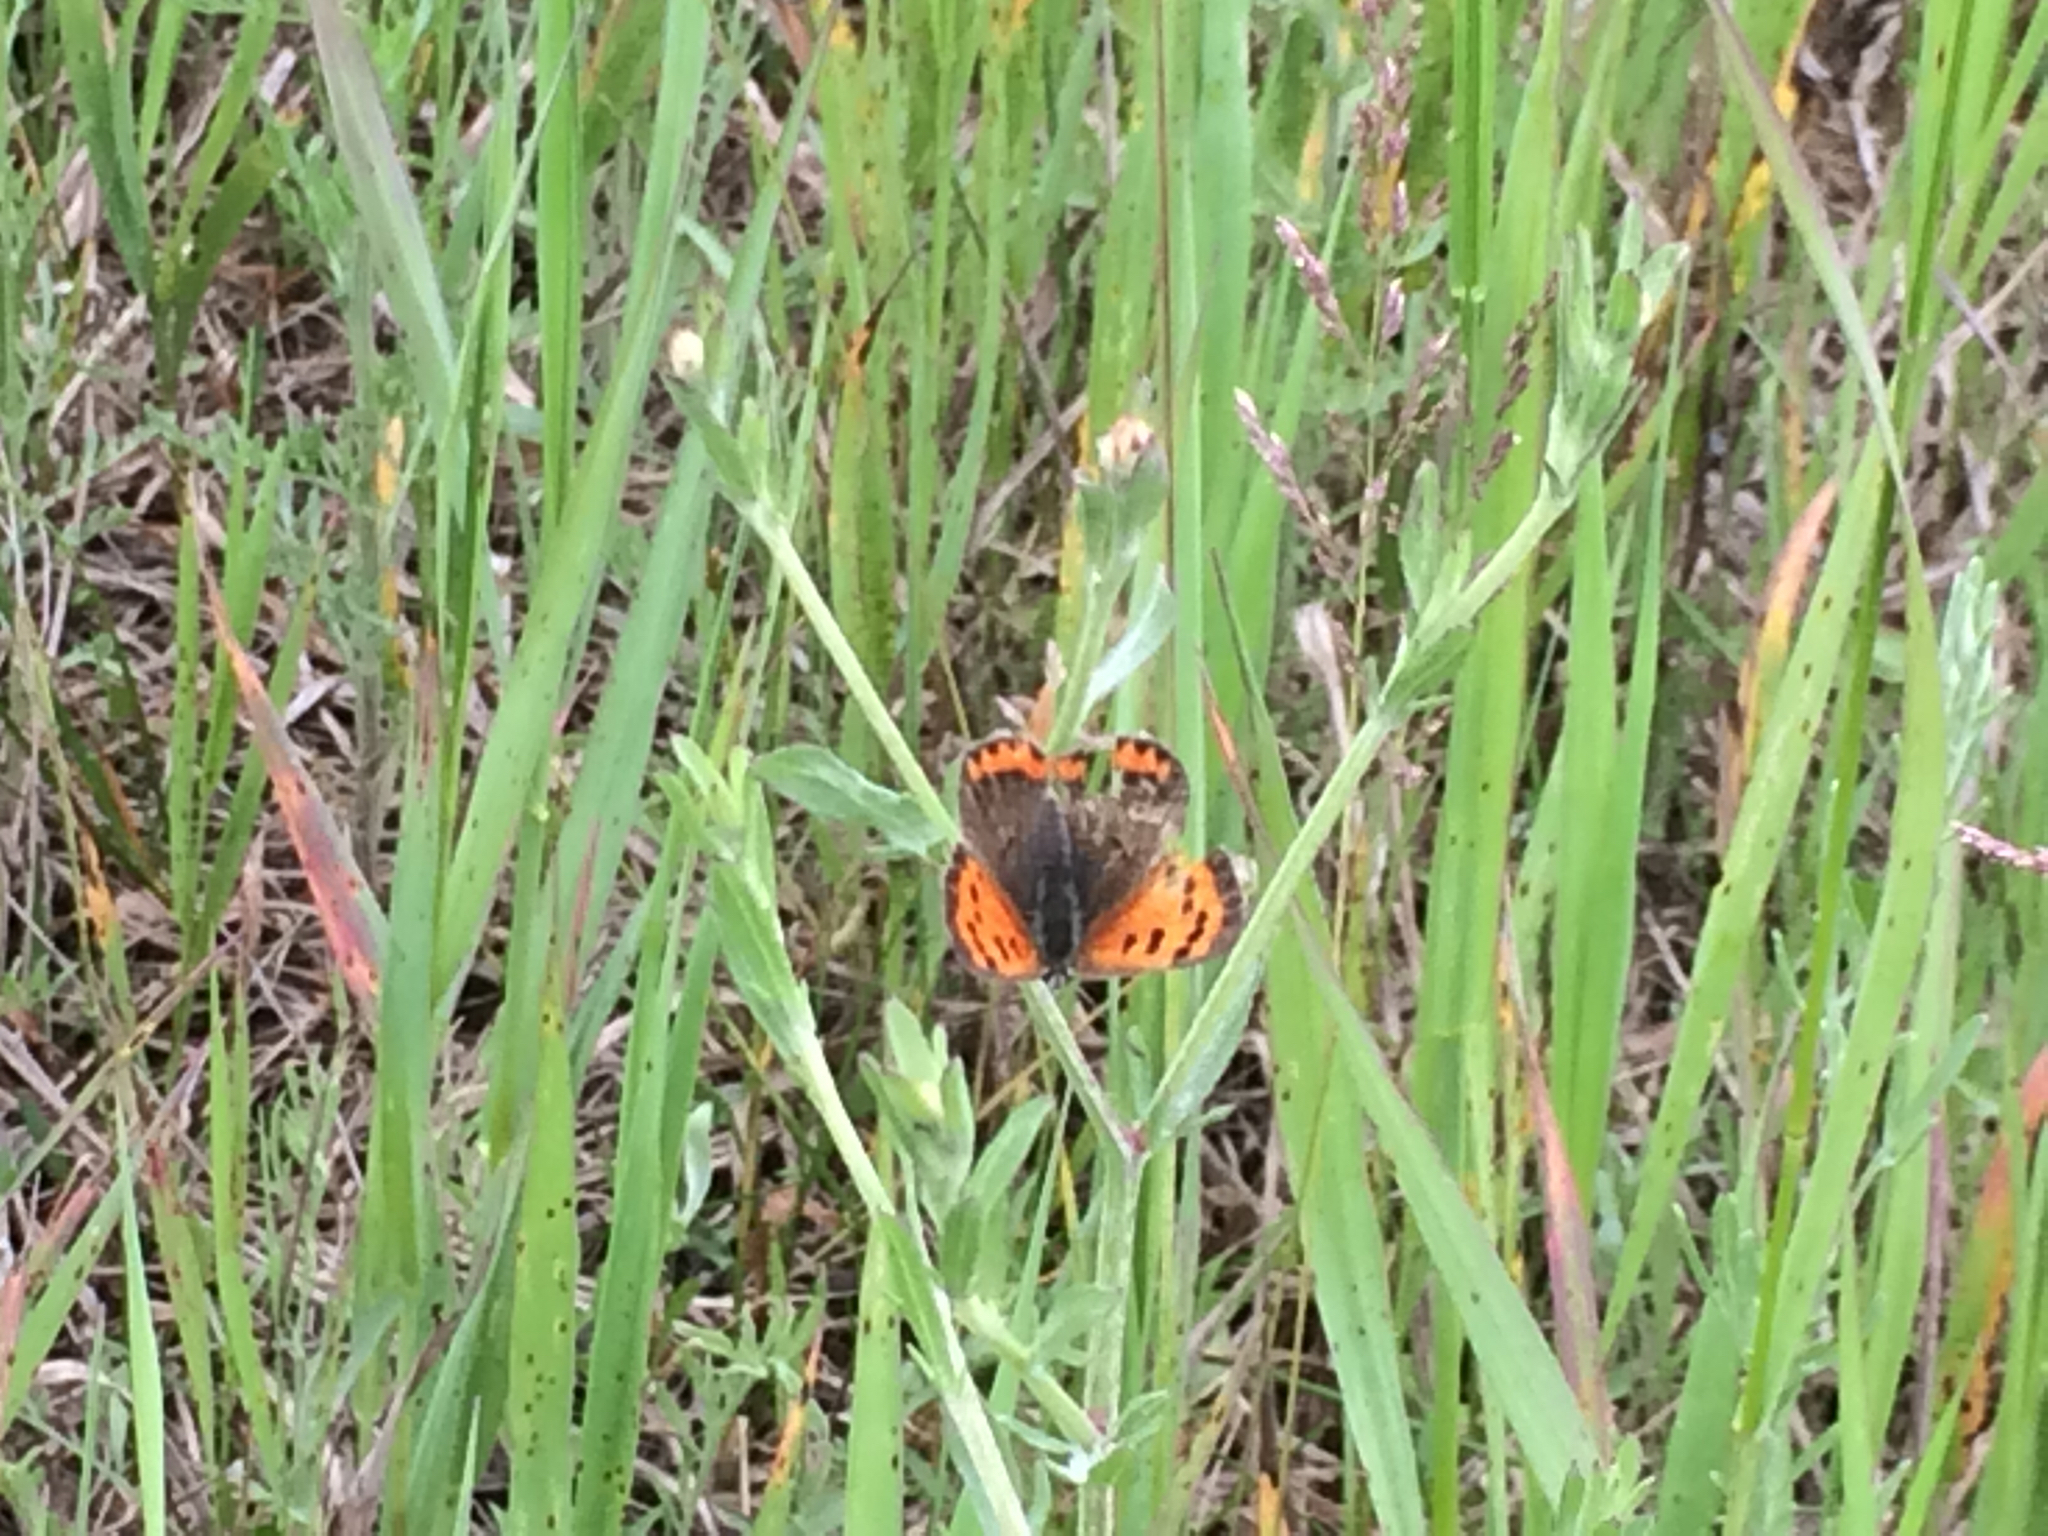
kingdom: Animalia
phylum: Arthropoda
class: Insecta
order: Lepidoptera
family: Lycaenidae
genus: Lycaena
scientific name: Lycaena hypophlaeas
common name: American copper
